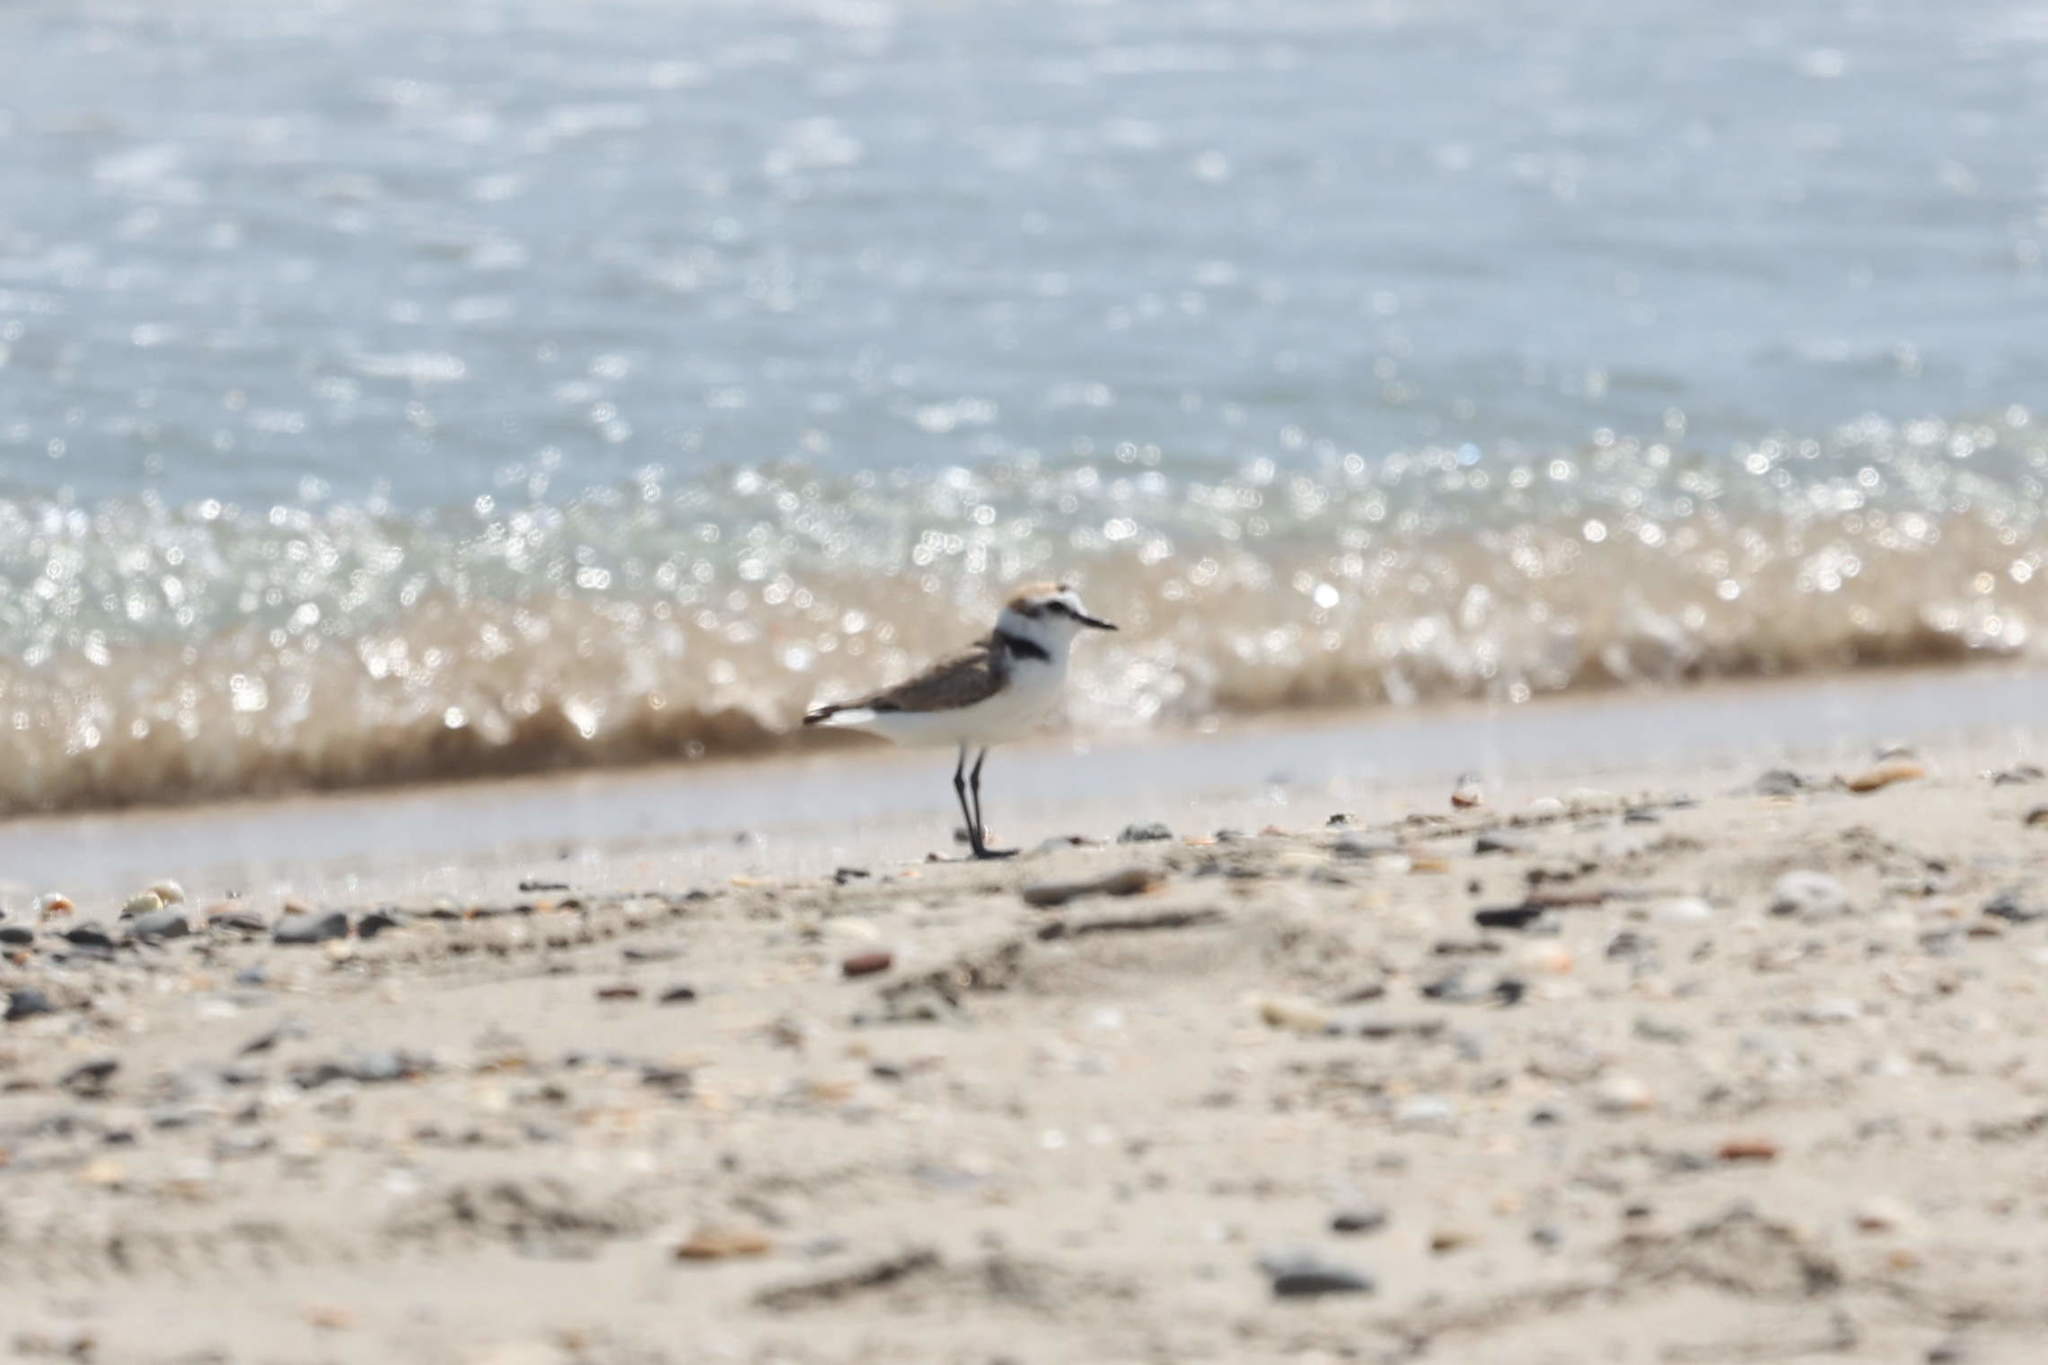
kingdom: Animalia
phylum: Chordata
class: Aves
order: Charadriiformes
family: Charadriidae
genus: Charadrius
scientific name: Charadrius alexandrinus
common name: Kentish plover
